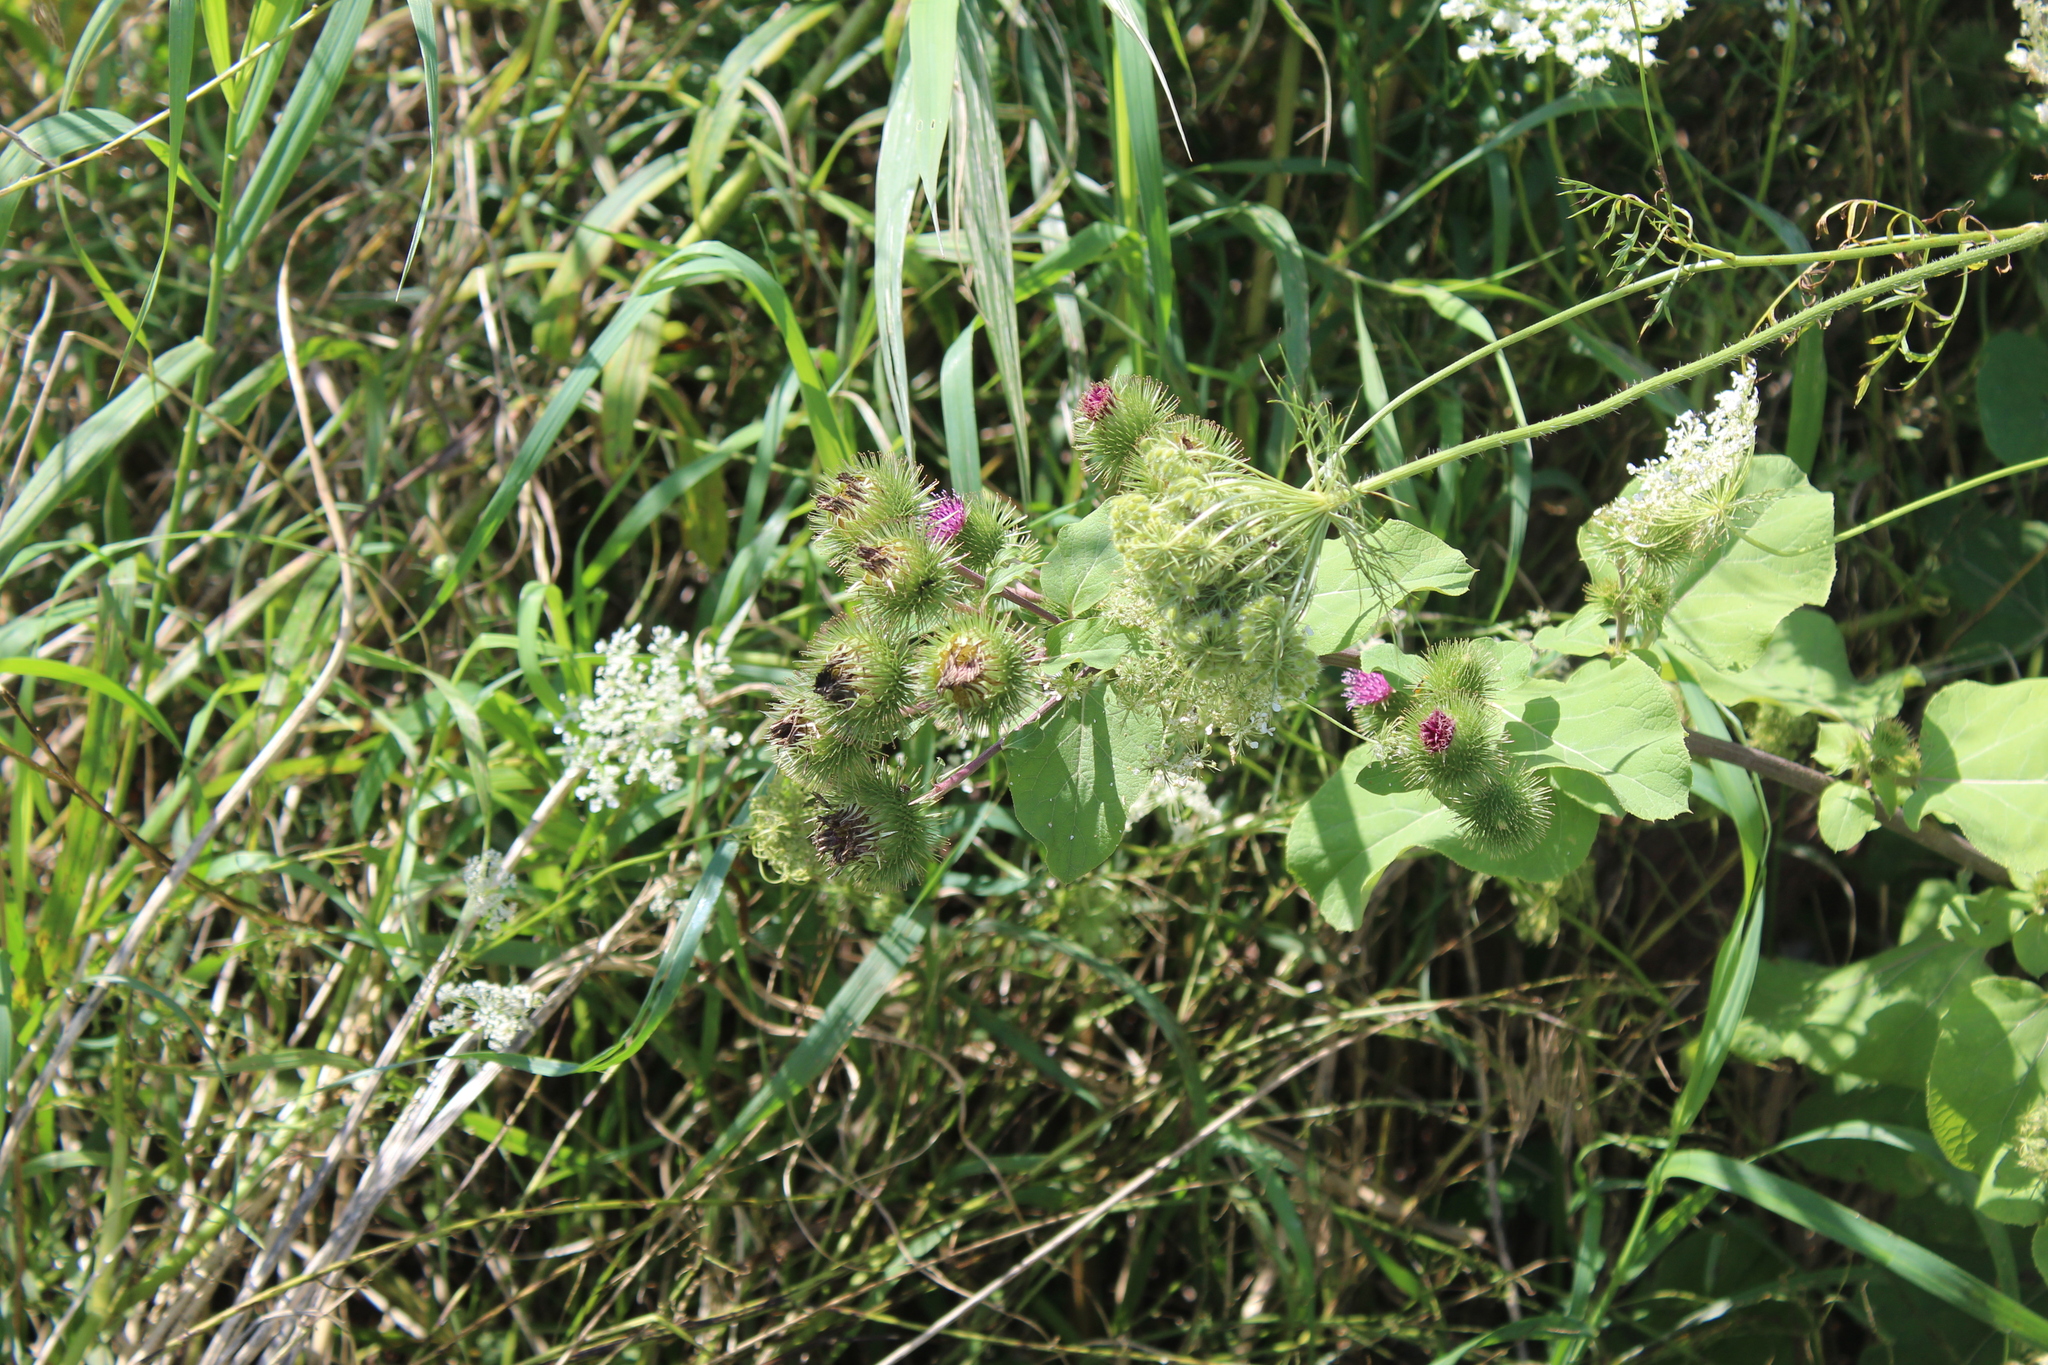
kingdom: Plantae
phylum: Tracheophyta
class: Magnoliopsida
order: Asterales
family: Asteraceae
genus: Arctium
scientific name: Arctium minus
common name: Lesser burdock
